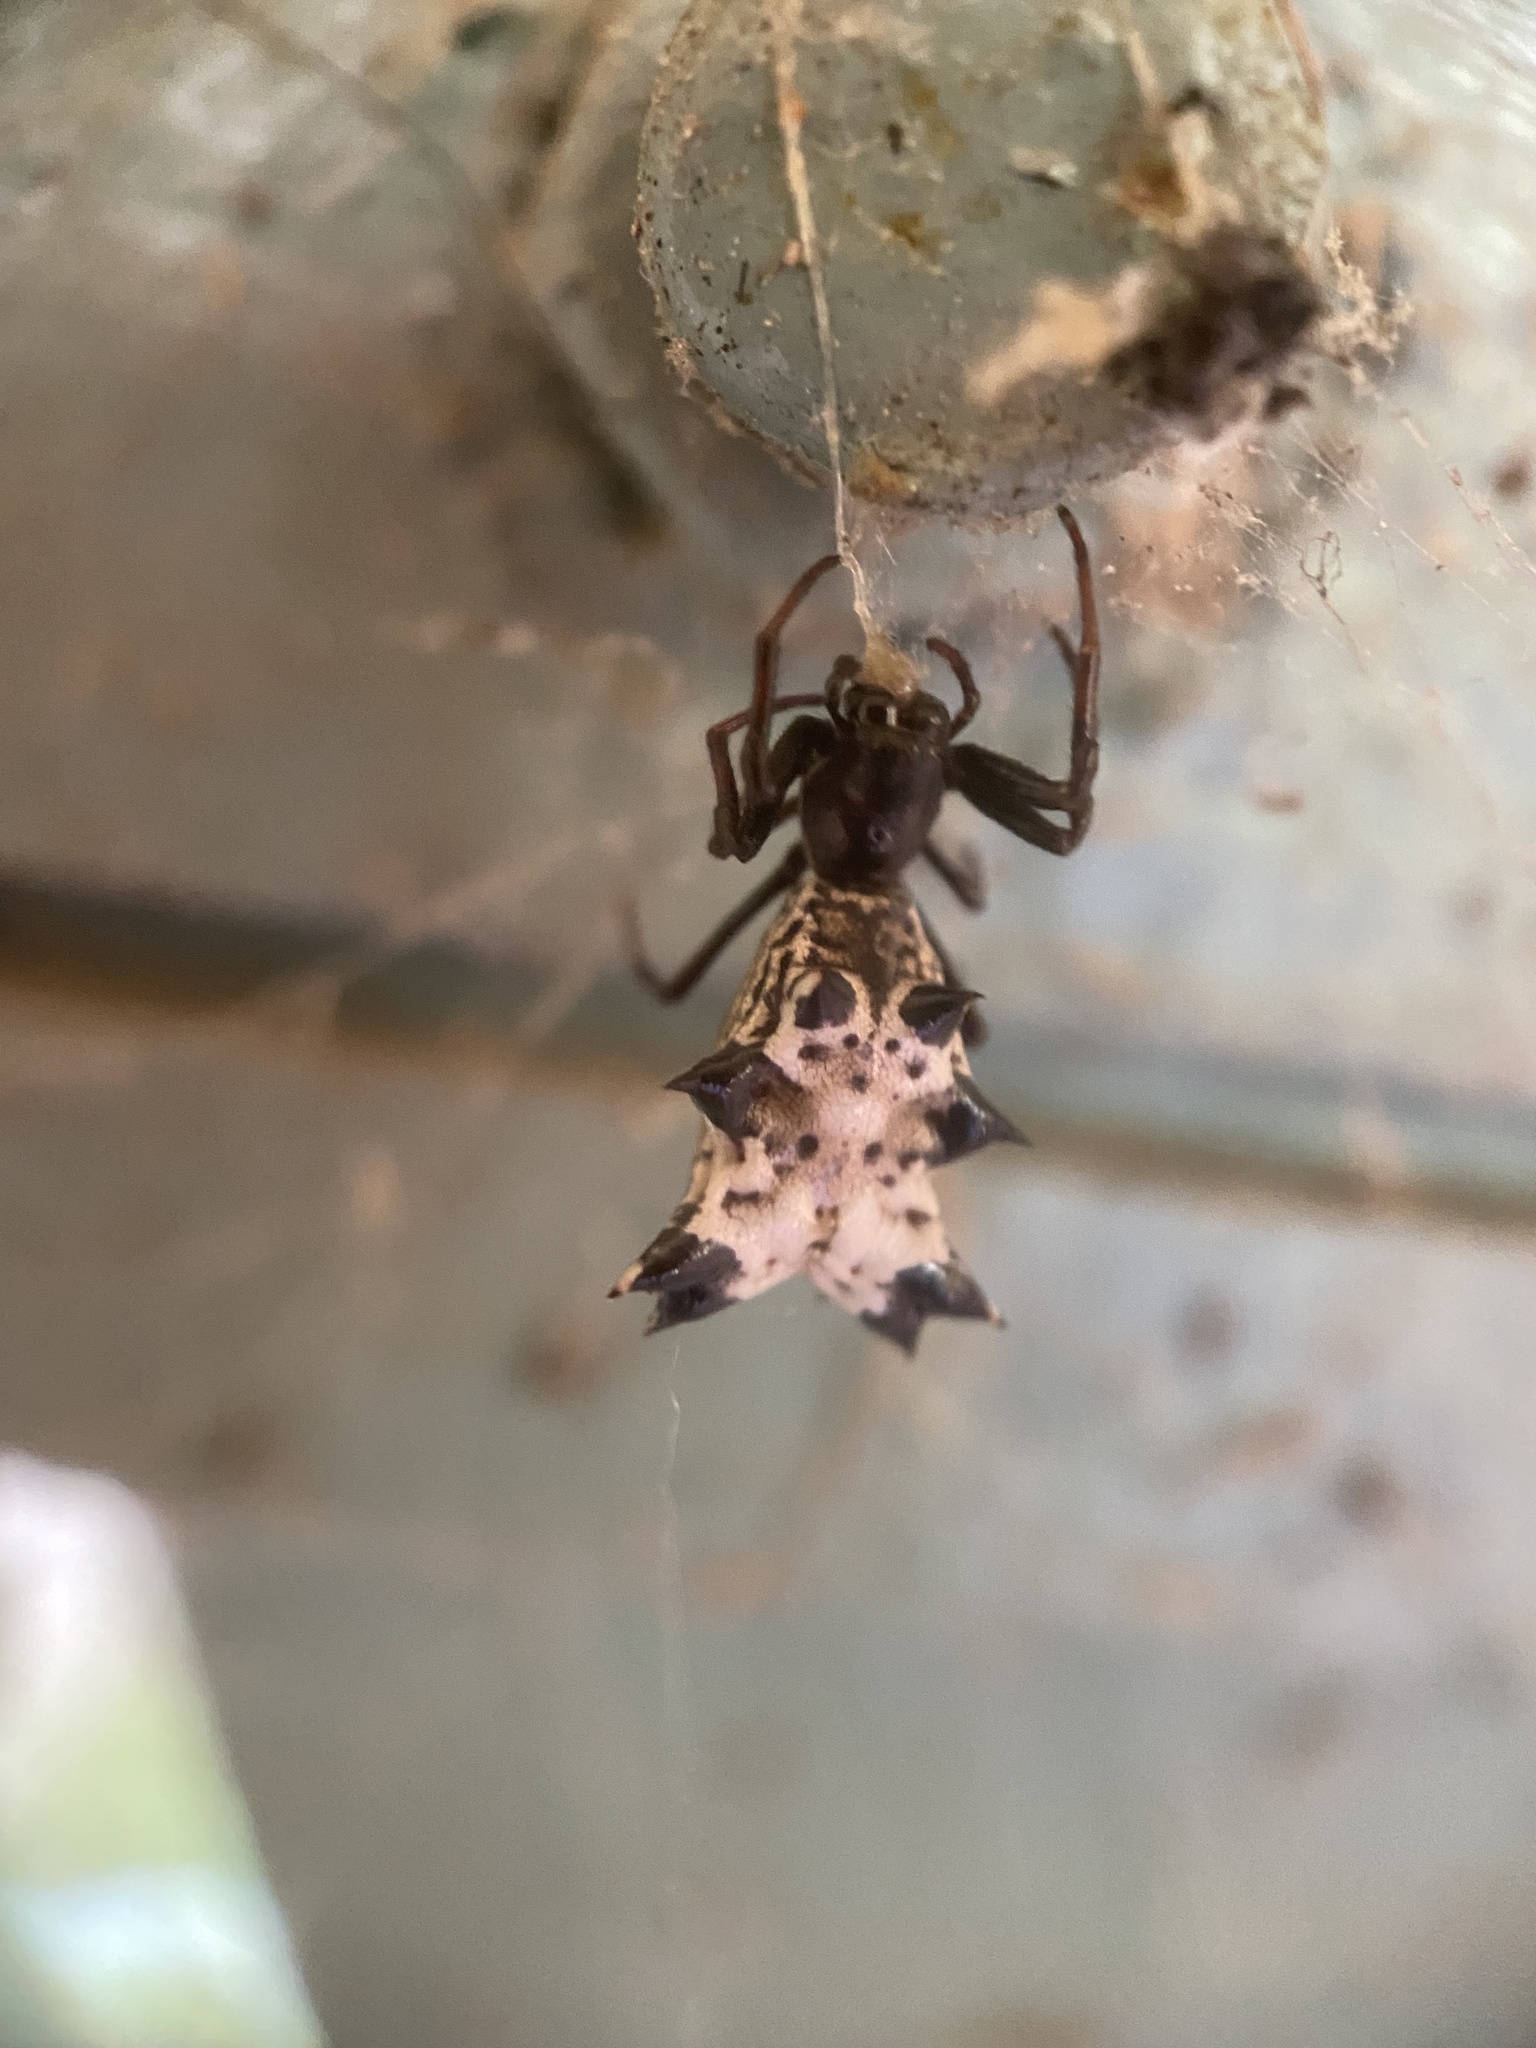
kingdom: Animalia
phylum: Arthropoda
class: Arachnida
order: Araneae
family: Araneidae
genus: Micrathena
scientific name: Micrathena gracilis
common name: Orb weavers
